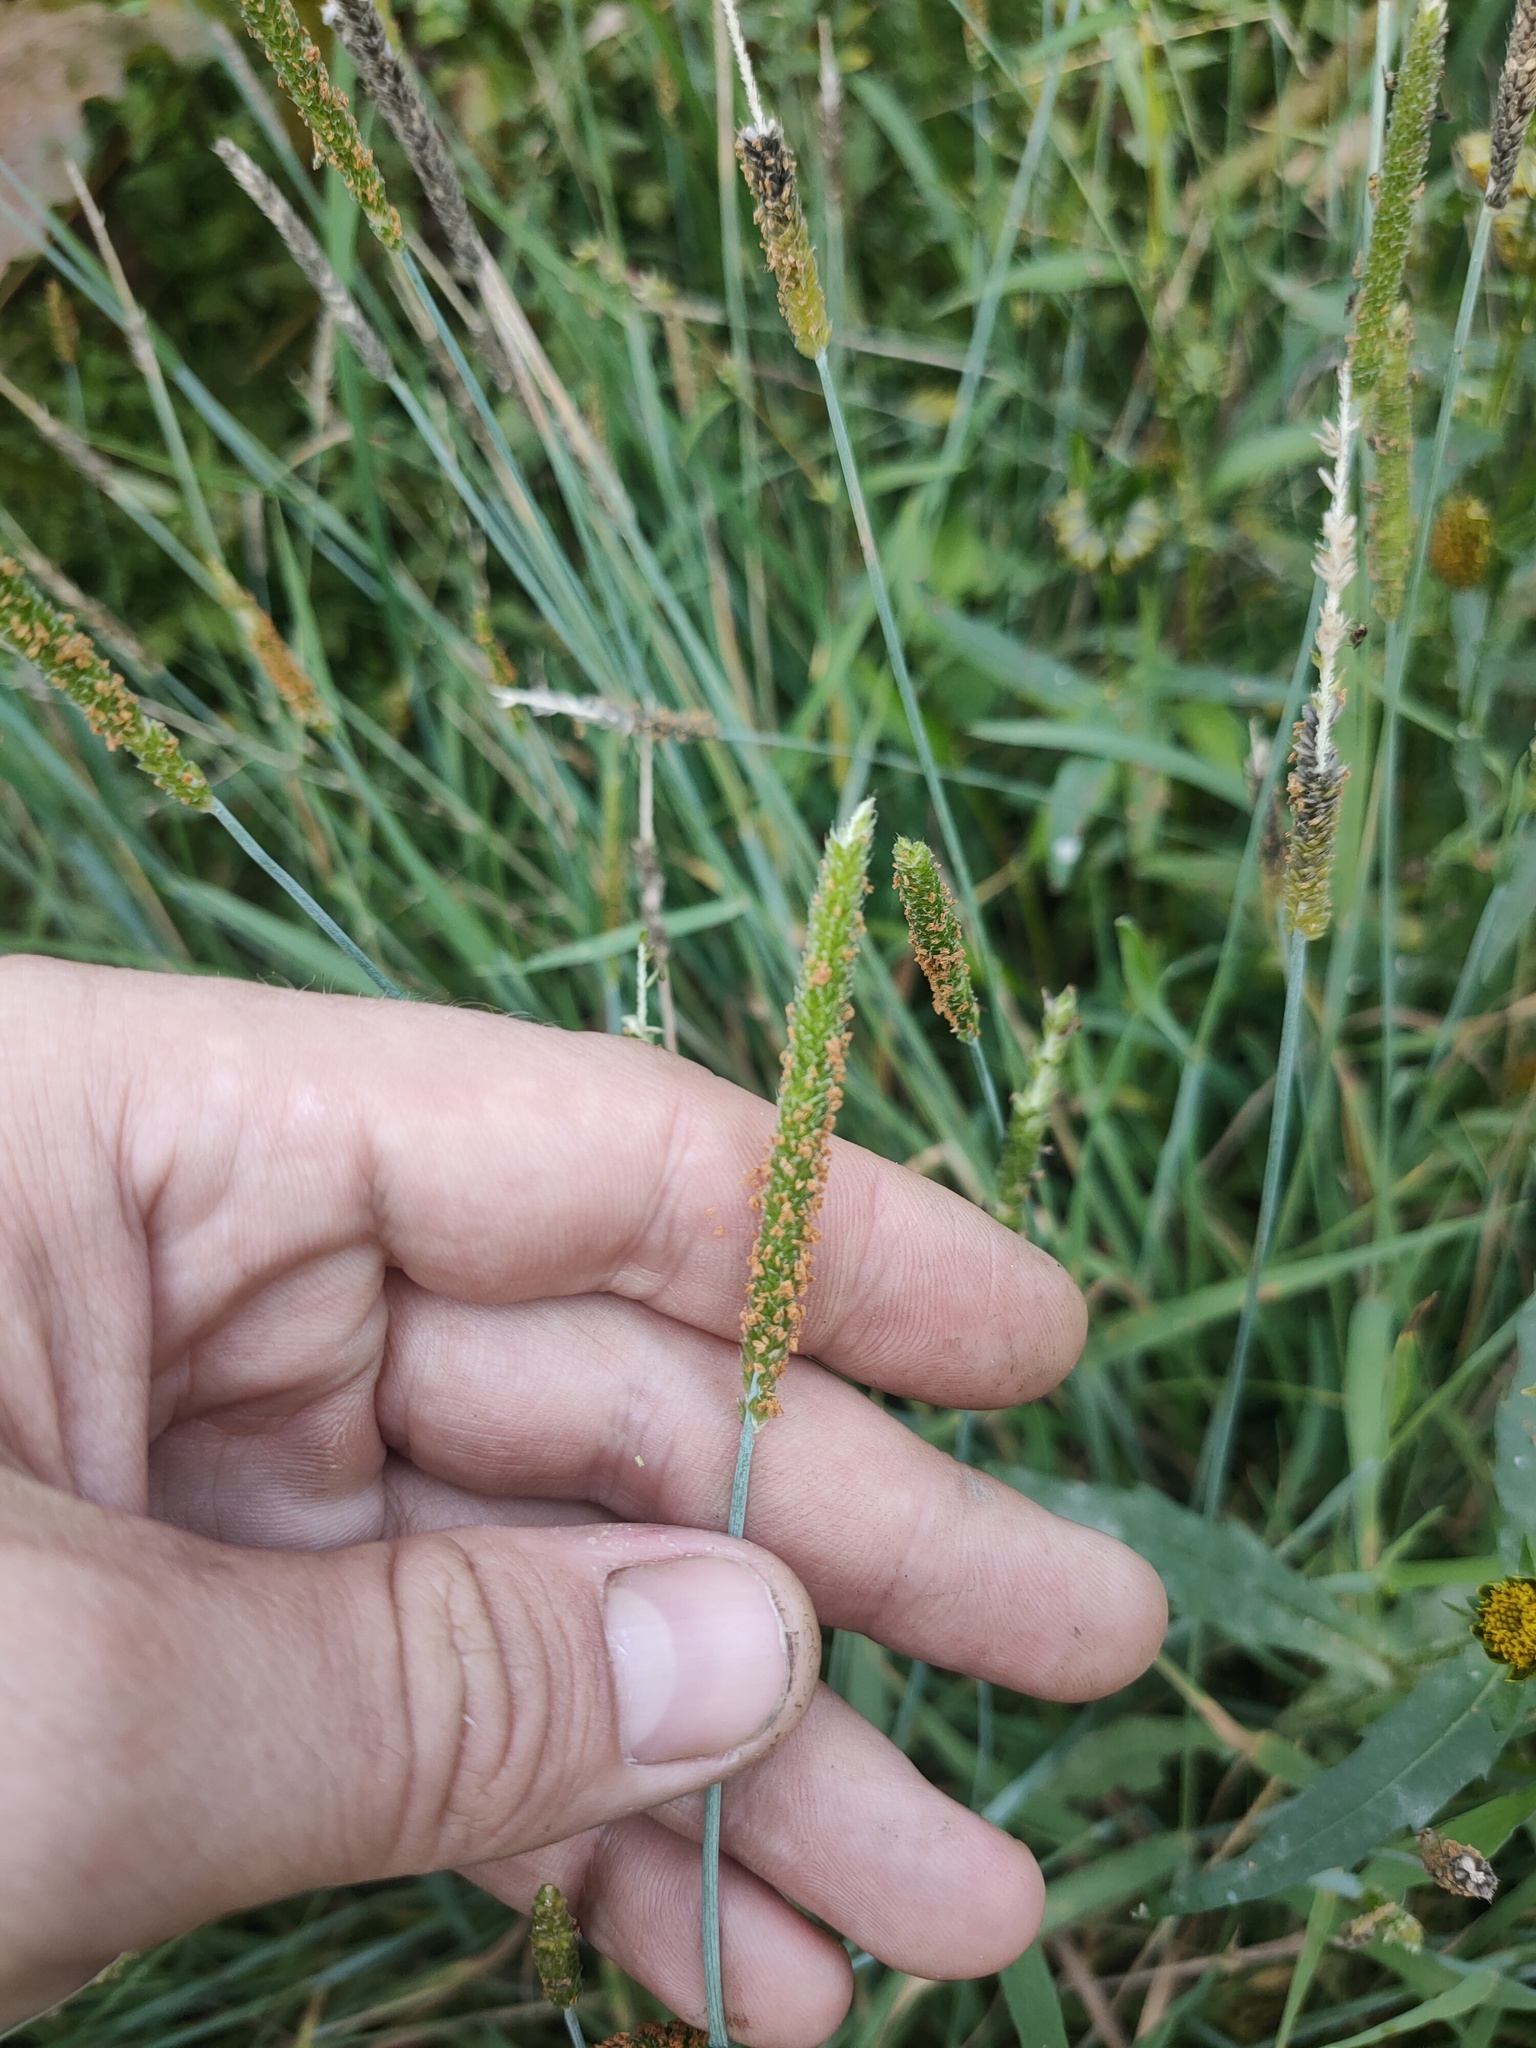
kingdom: Plantae
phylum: Tracheophyta
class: Liliopsida
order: Poales
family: Poaceae
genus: Alopecurus
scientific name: Alopecurus aequalis
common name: Orange foxtail
